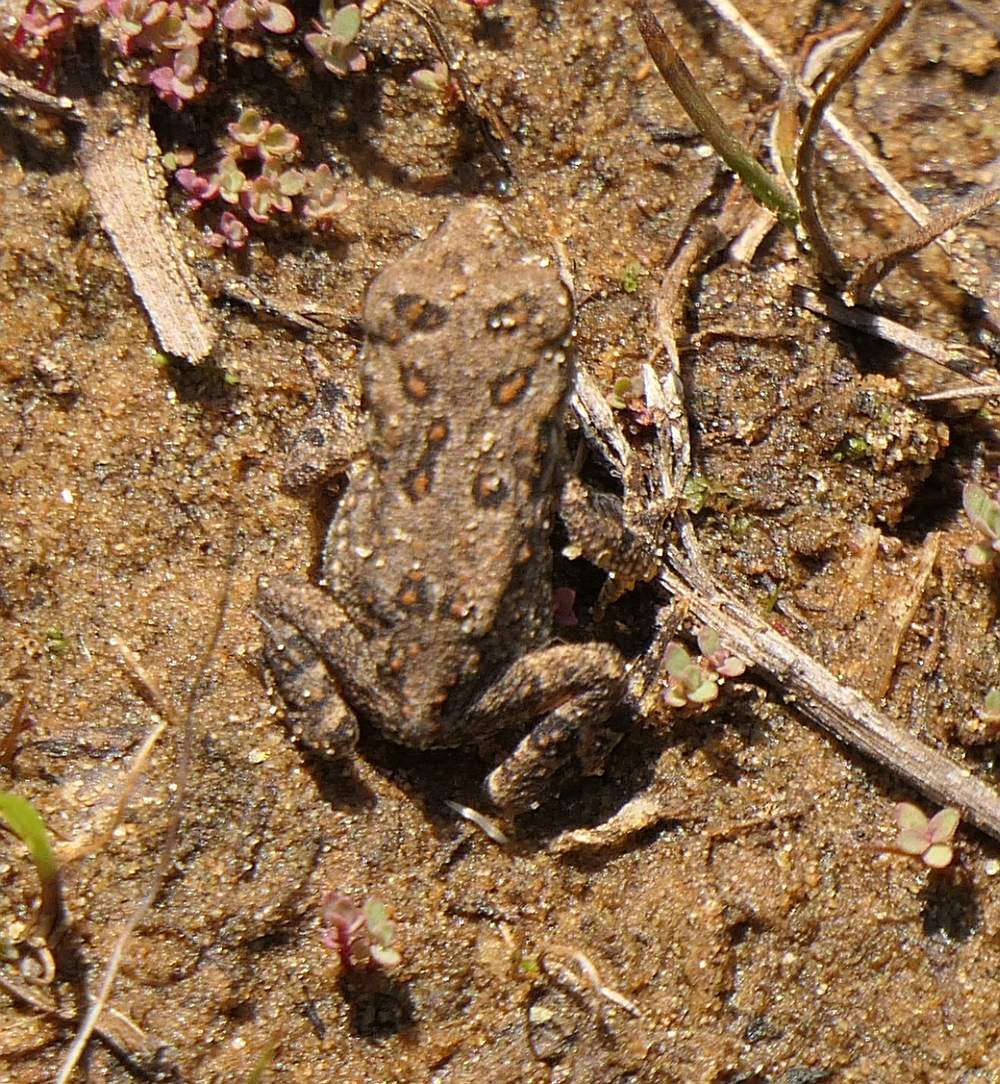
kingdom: Animalia
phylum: Chordata
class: Amphibia
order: Anura
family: Bufonidae
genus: Anaxyrus
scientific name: Anaxyrus americanus
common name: American toad
